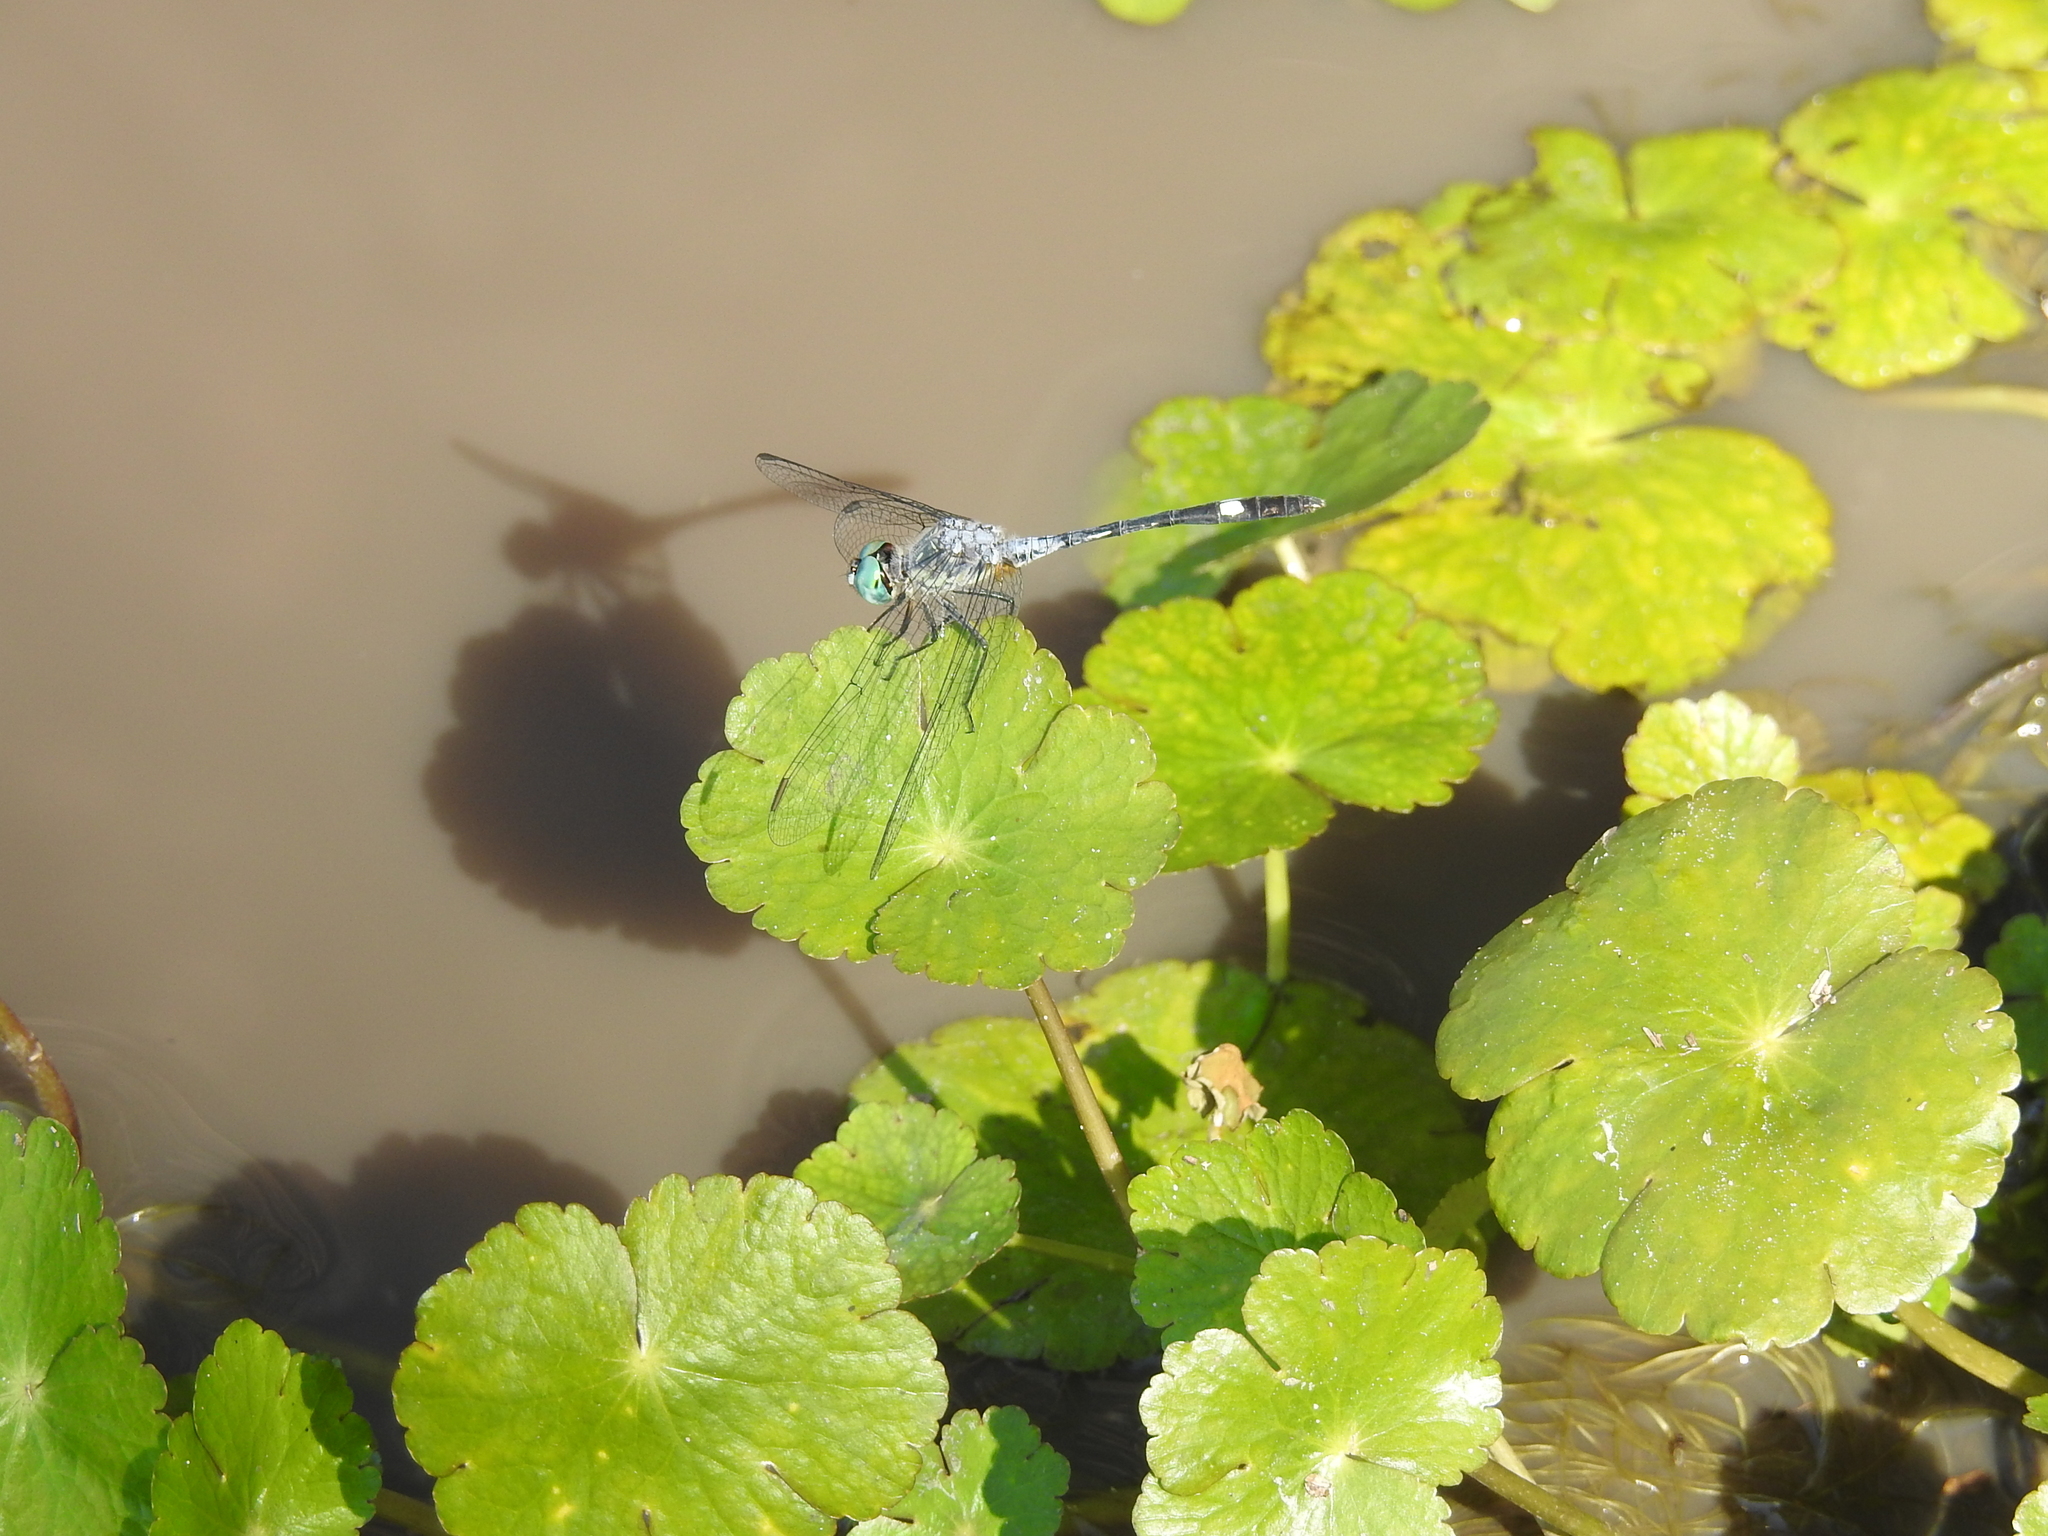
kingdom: Animalia
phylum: Arthropoda
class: Insecta
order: Odonata
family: Libellulidae
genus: Micrathyria
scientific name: Micrathyria longifasciata
